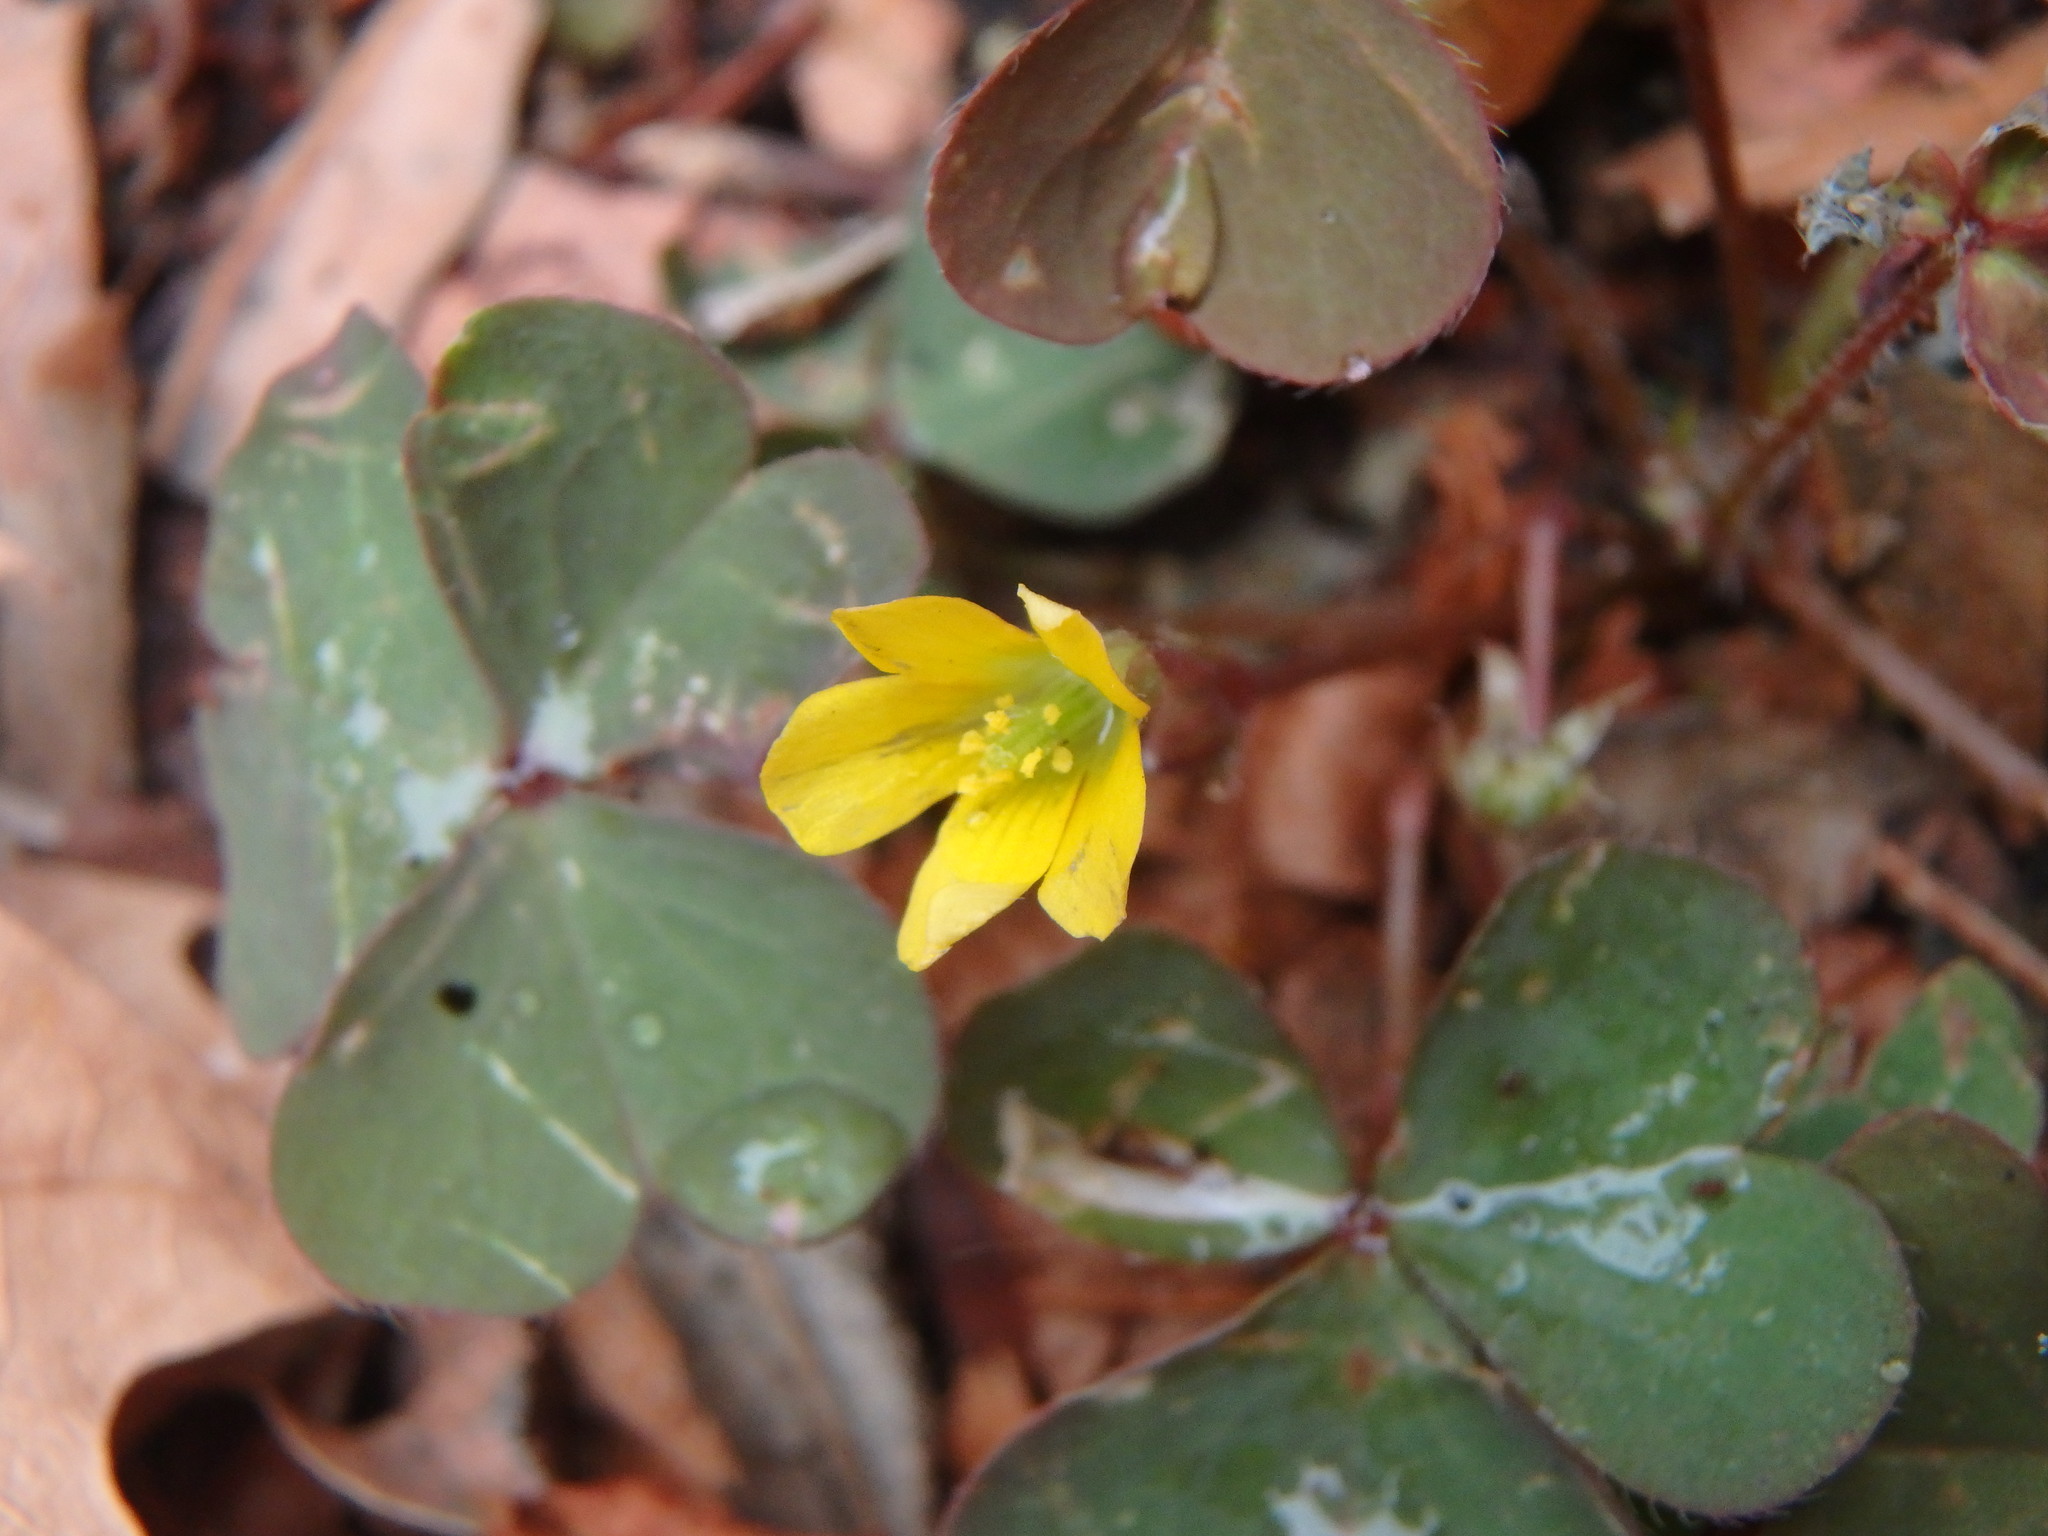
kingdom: Plantae
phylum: Tracheophyta
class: Magnoliopsida
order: Oxalidales
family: Oxalidaceae
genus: Oxalis
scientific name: Oxalis corniculata
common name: Procumbent yellow-sorrel
